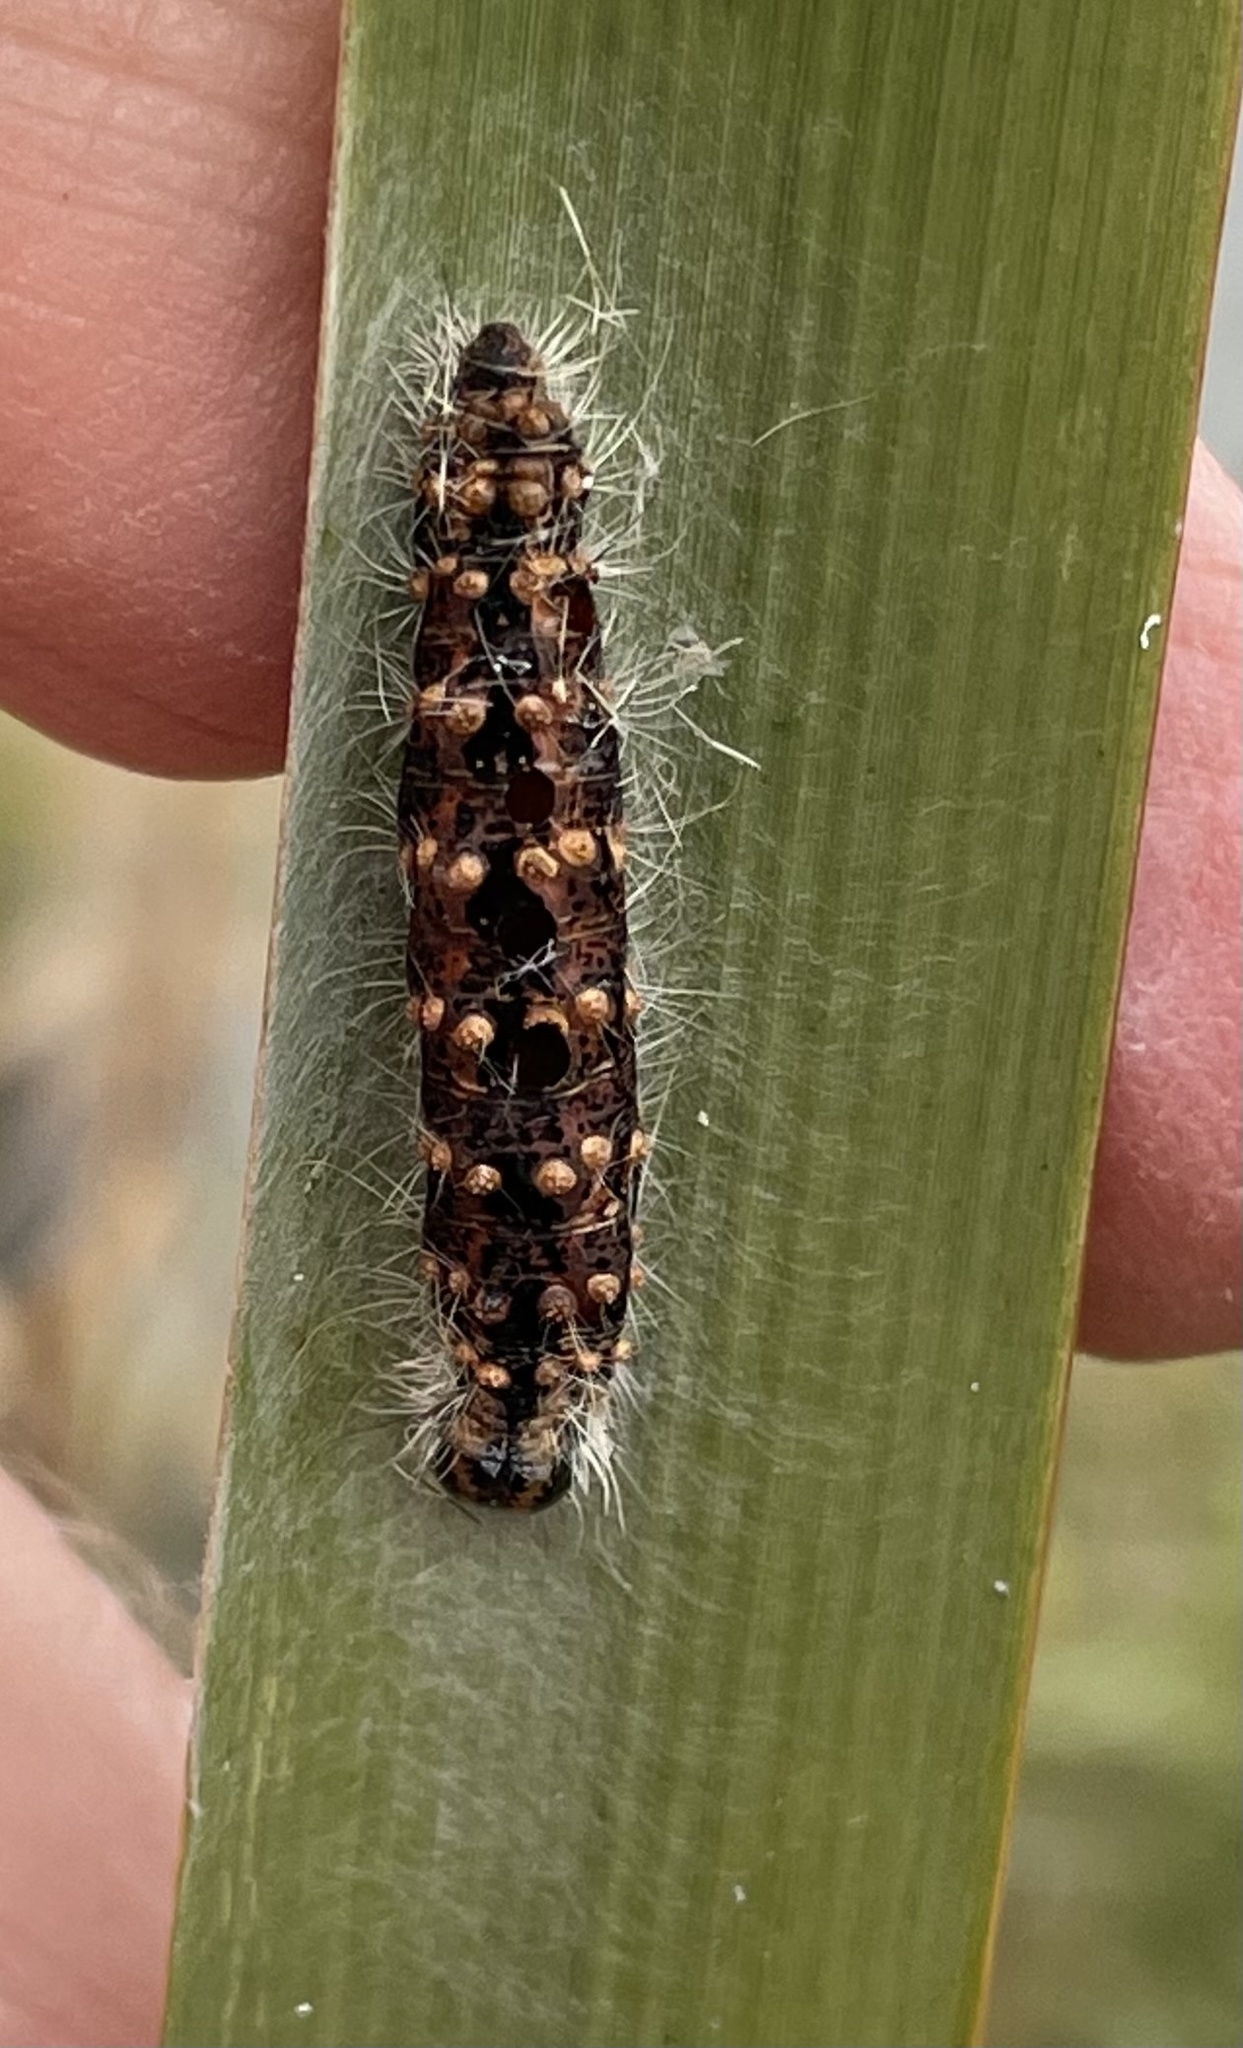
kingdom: Animalia
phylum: Arthropoda
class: Insecta
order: Lepidoptera
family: Noctuidae
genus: Acronicta
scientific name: Acronicta insularis
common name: Henry's marsh moth
